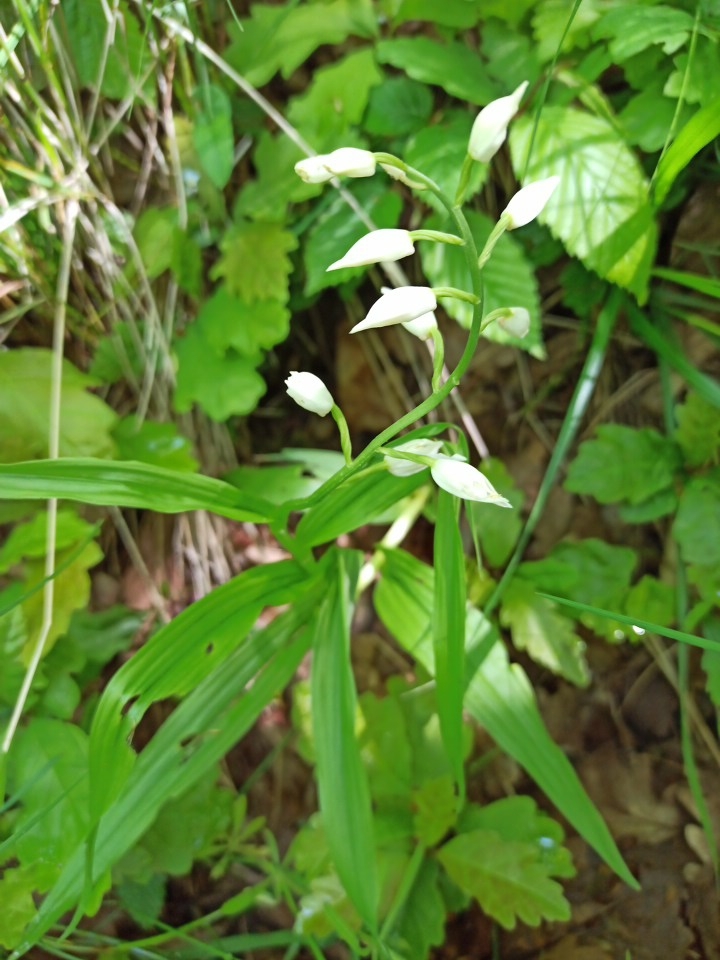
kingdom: Plantae
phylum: Tracheophyta
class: Liliopsida
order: Asparagales
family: Orchidaceae
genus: Cephalanthera
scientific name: Cephalanthera longifolia
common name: Narrow-leaved helleborine
